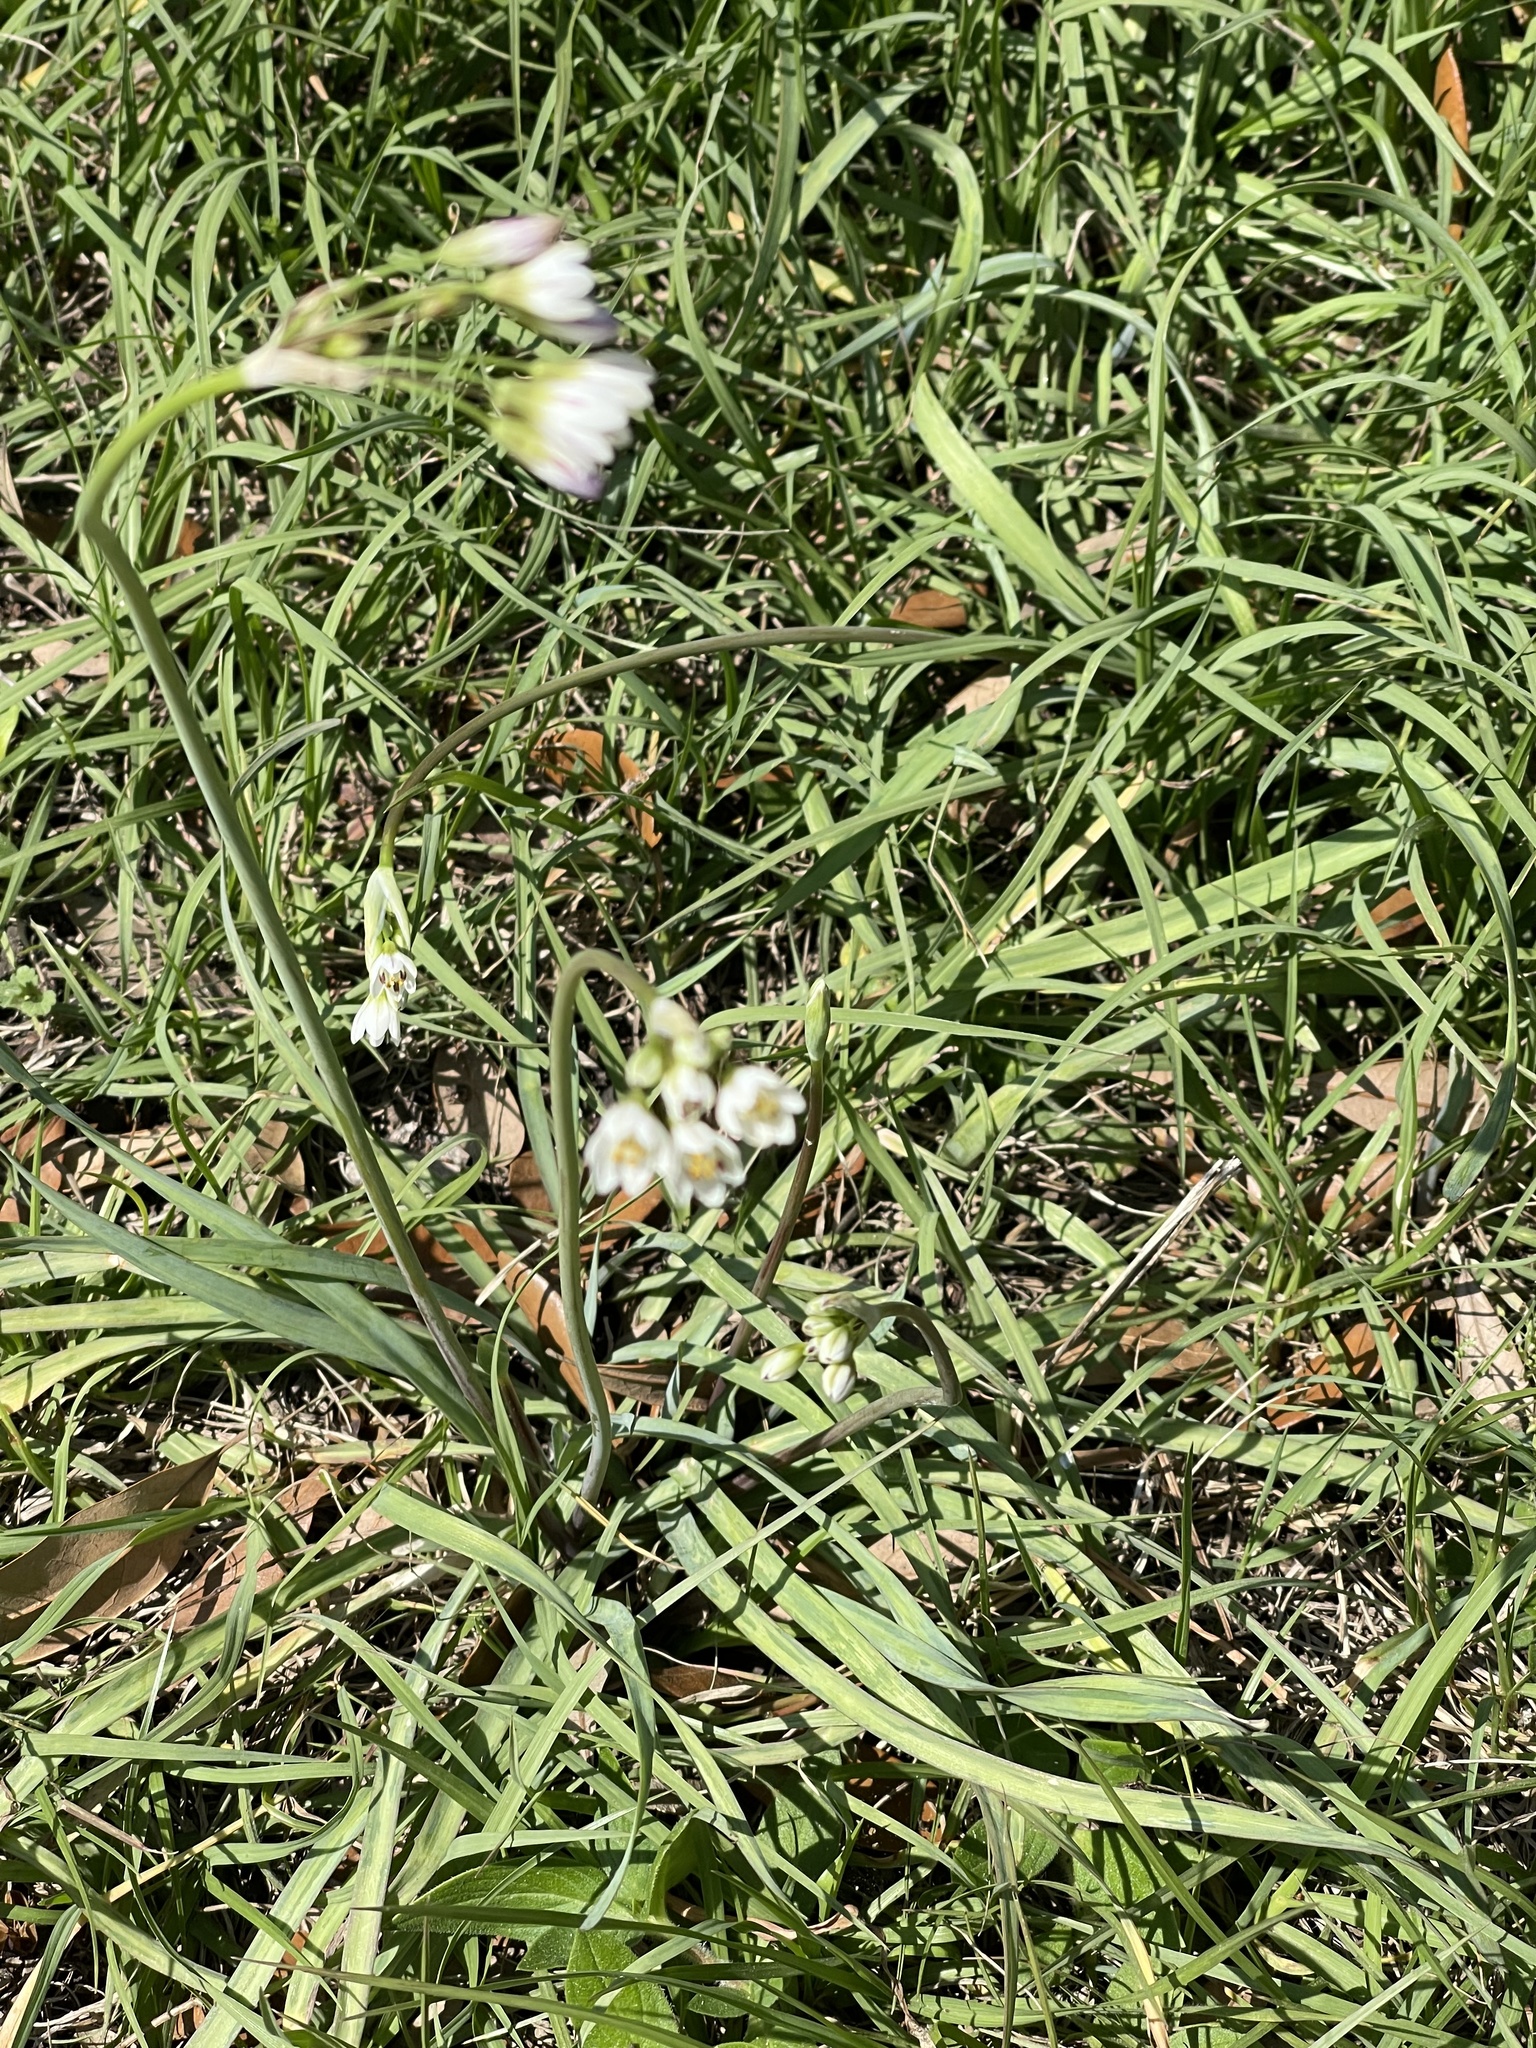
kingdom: Plantae
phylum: Tracheophyta
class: Liliopsida
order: Asparagales
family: Amaryllidaceae
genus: Nothoscordum
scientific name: Nothoscordum bivalve
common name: Crow-poison
